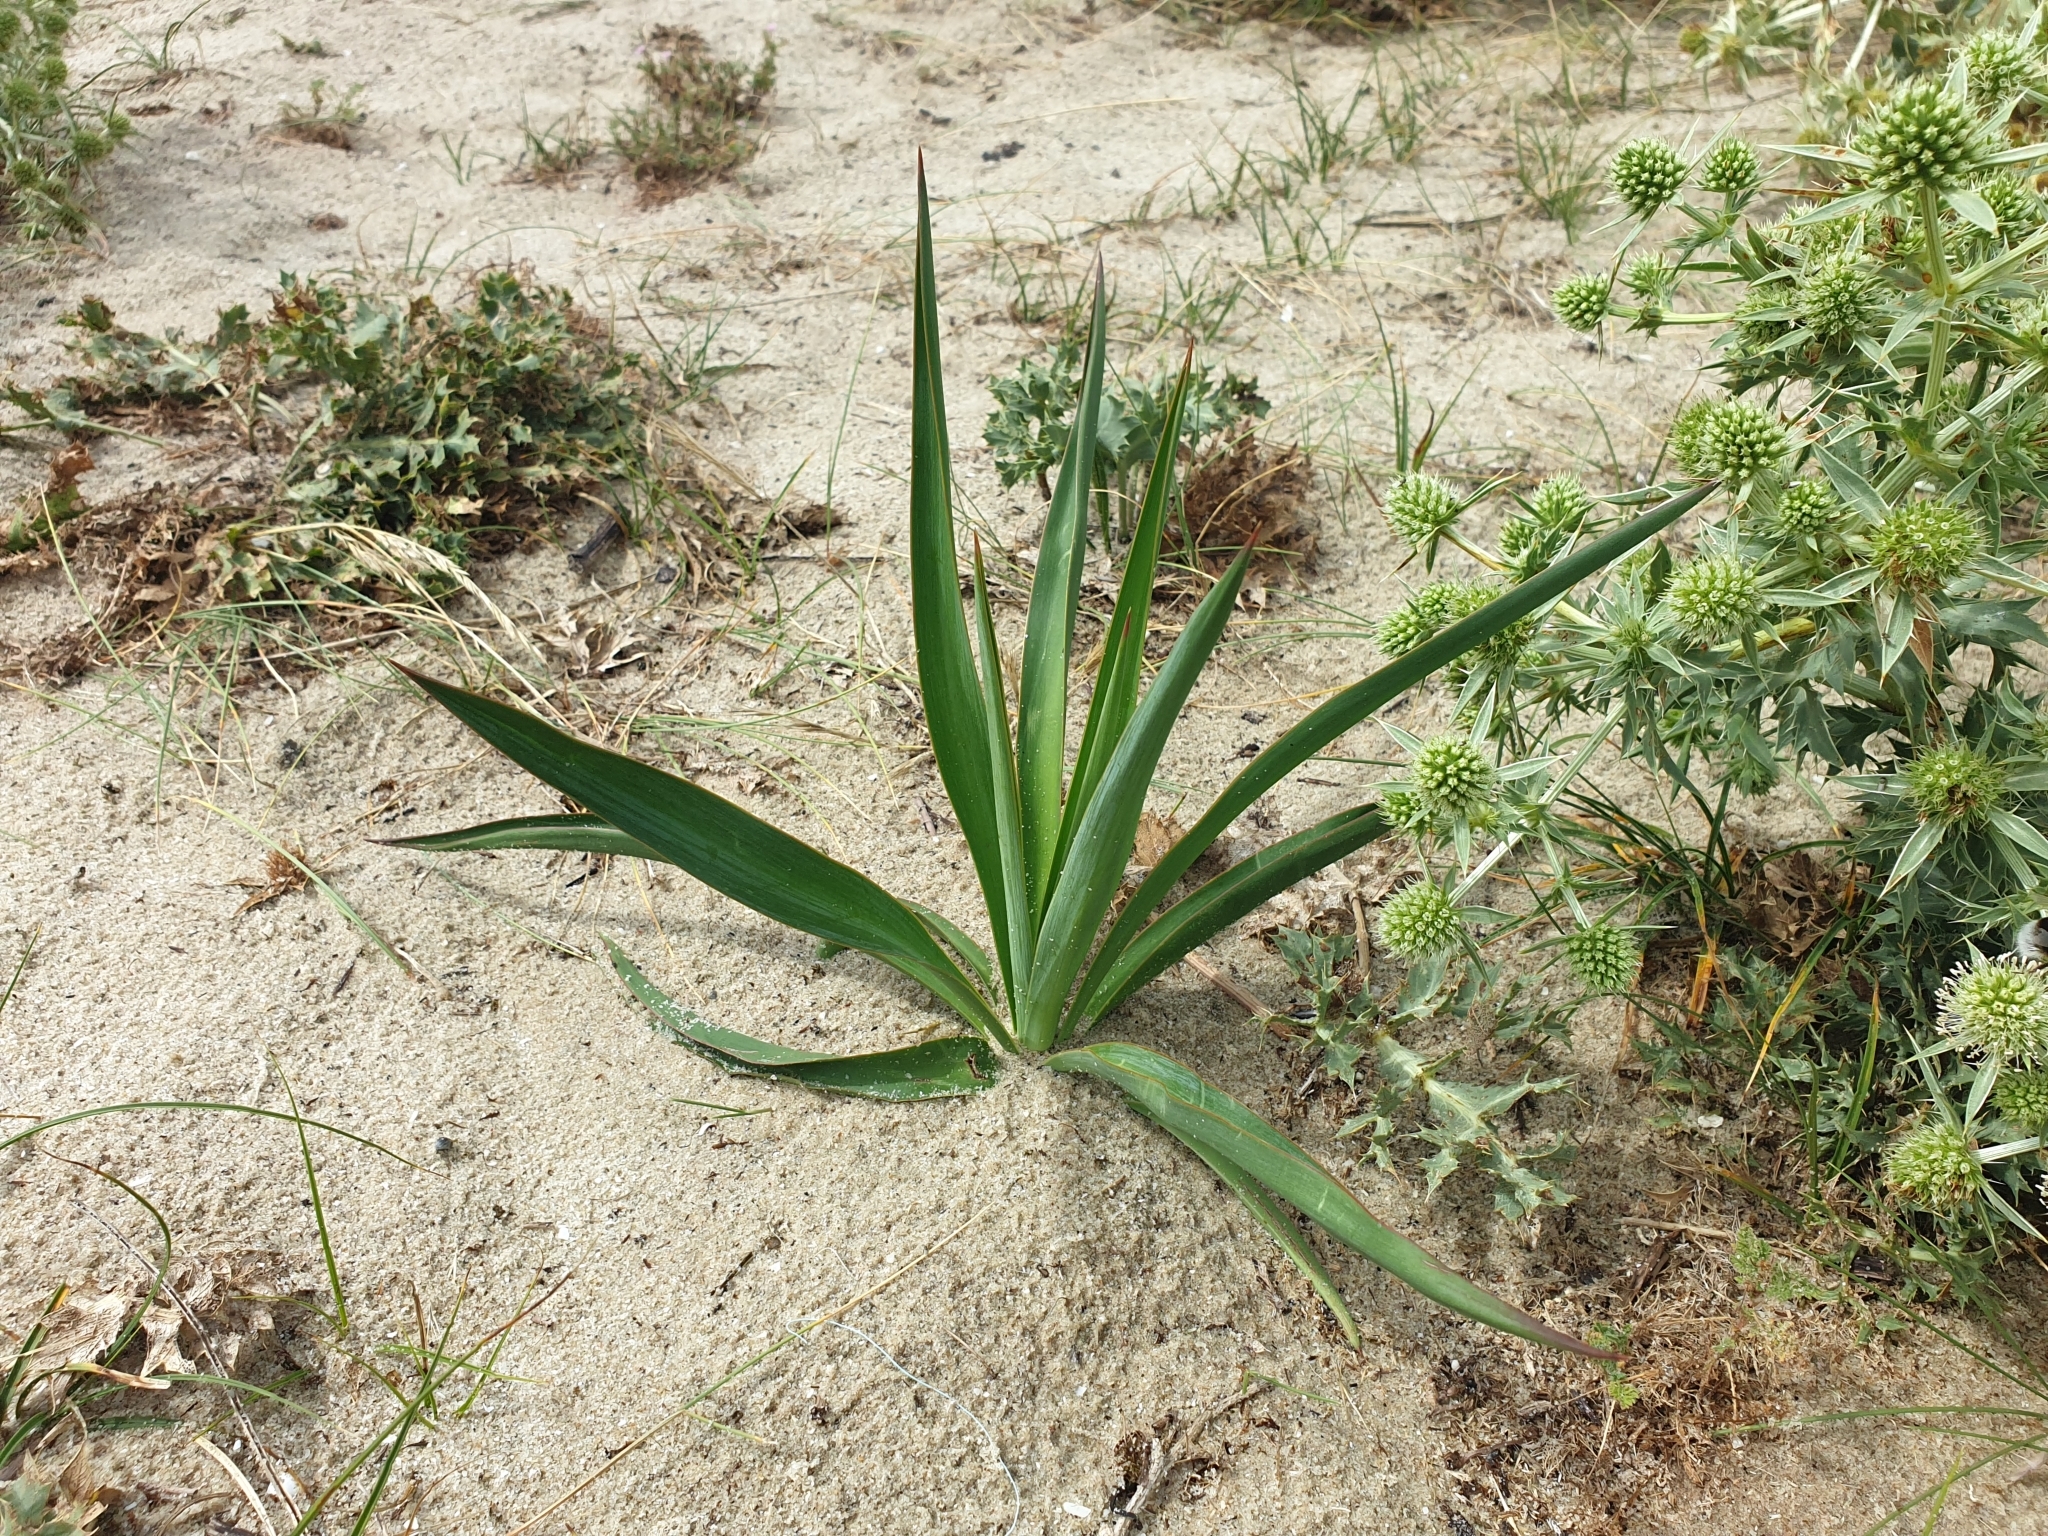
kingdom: Plantae
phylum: Tracheophyta
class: Liliopsida
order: Asparagales
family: Asparagaceae
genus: Yucca
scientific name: Yucca gloriosa
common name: Spanish-dagger
